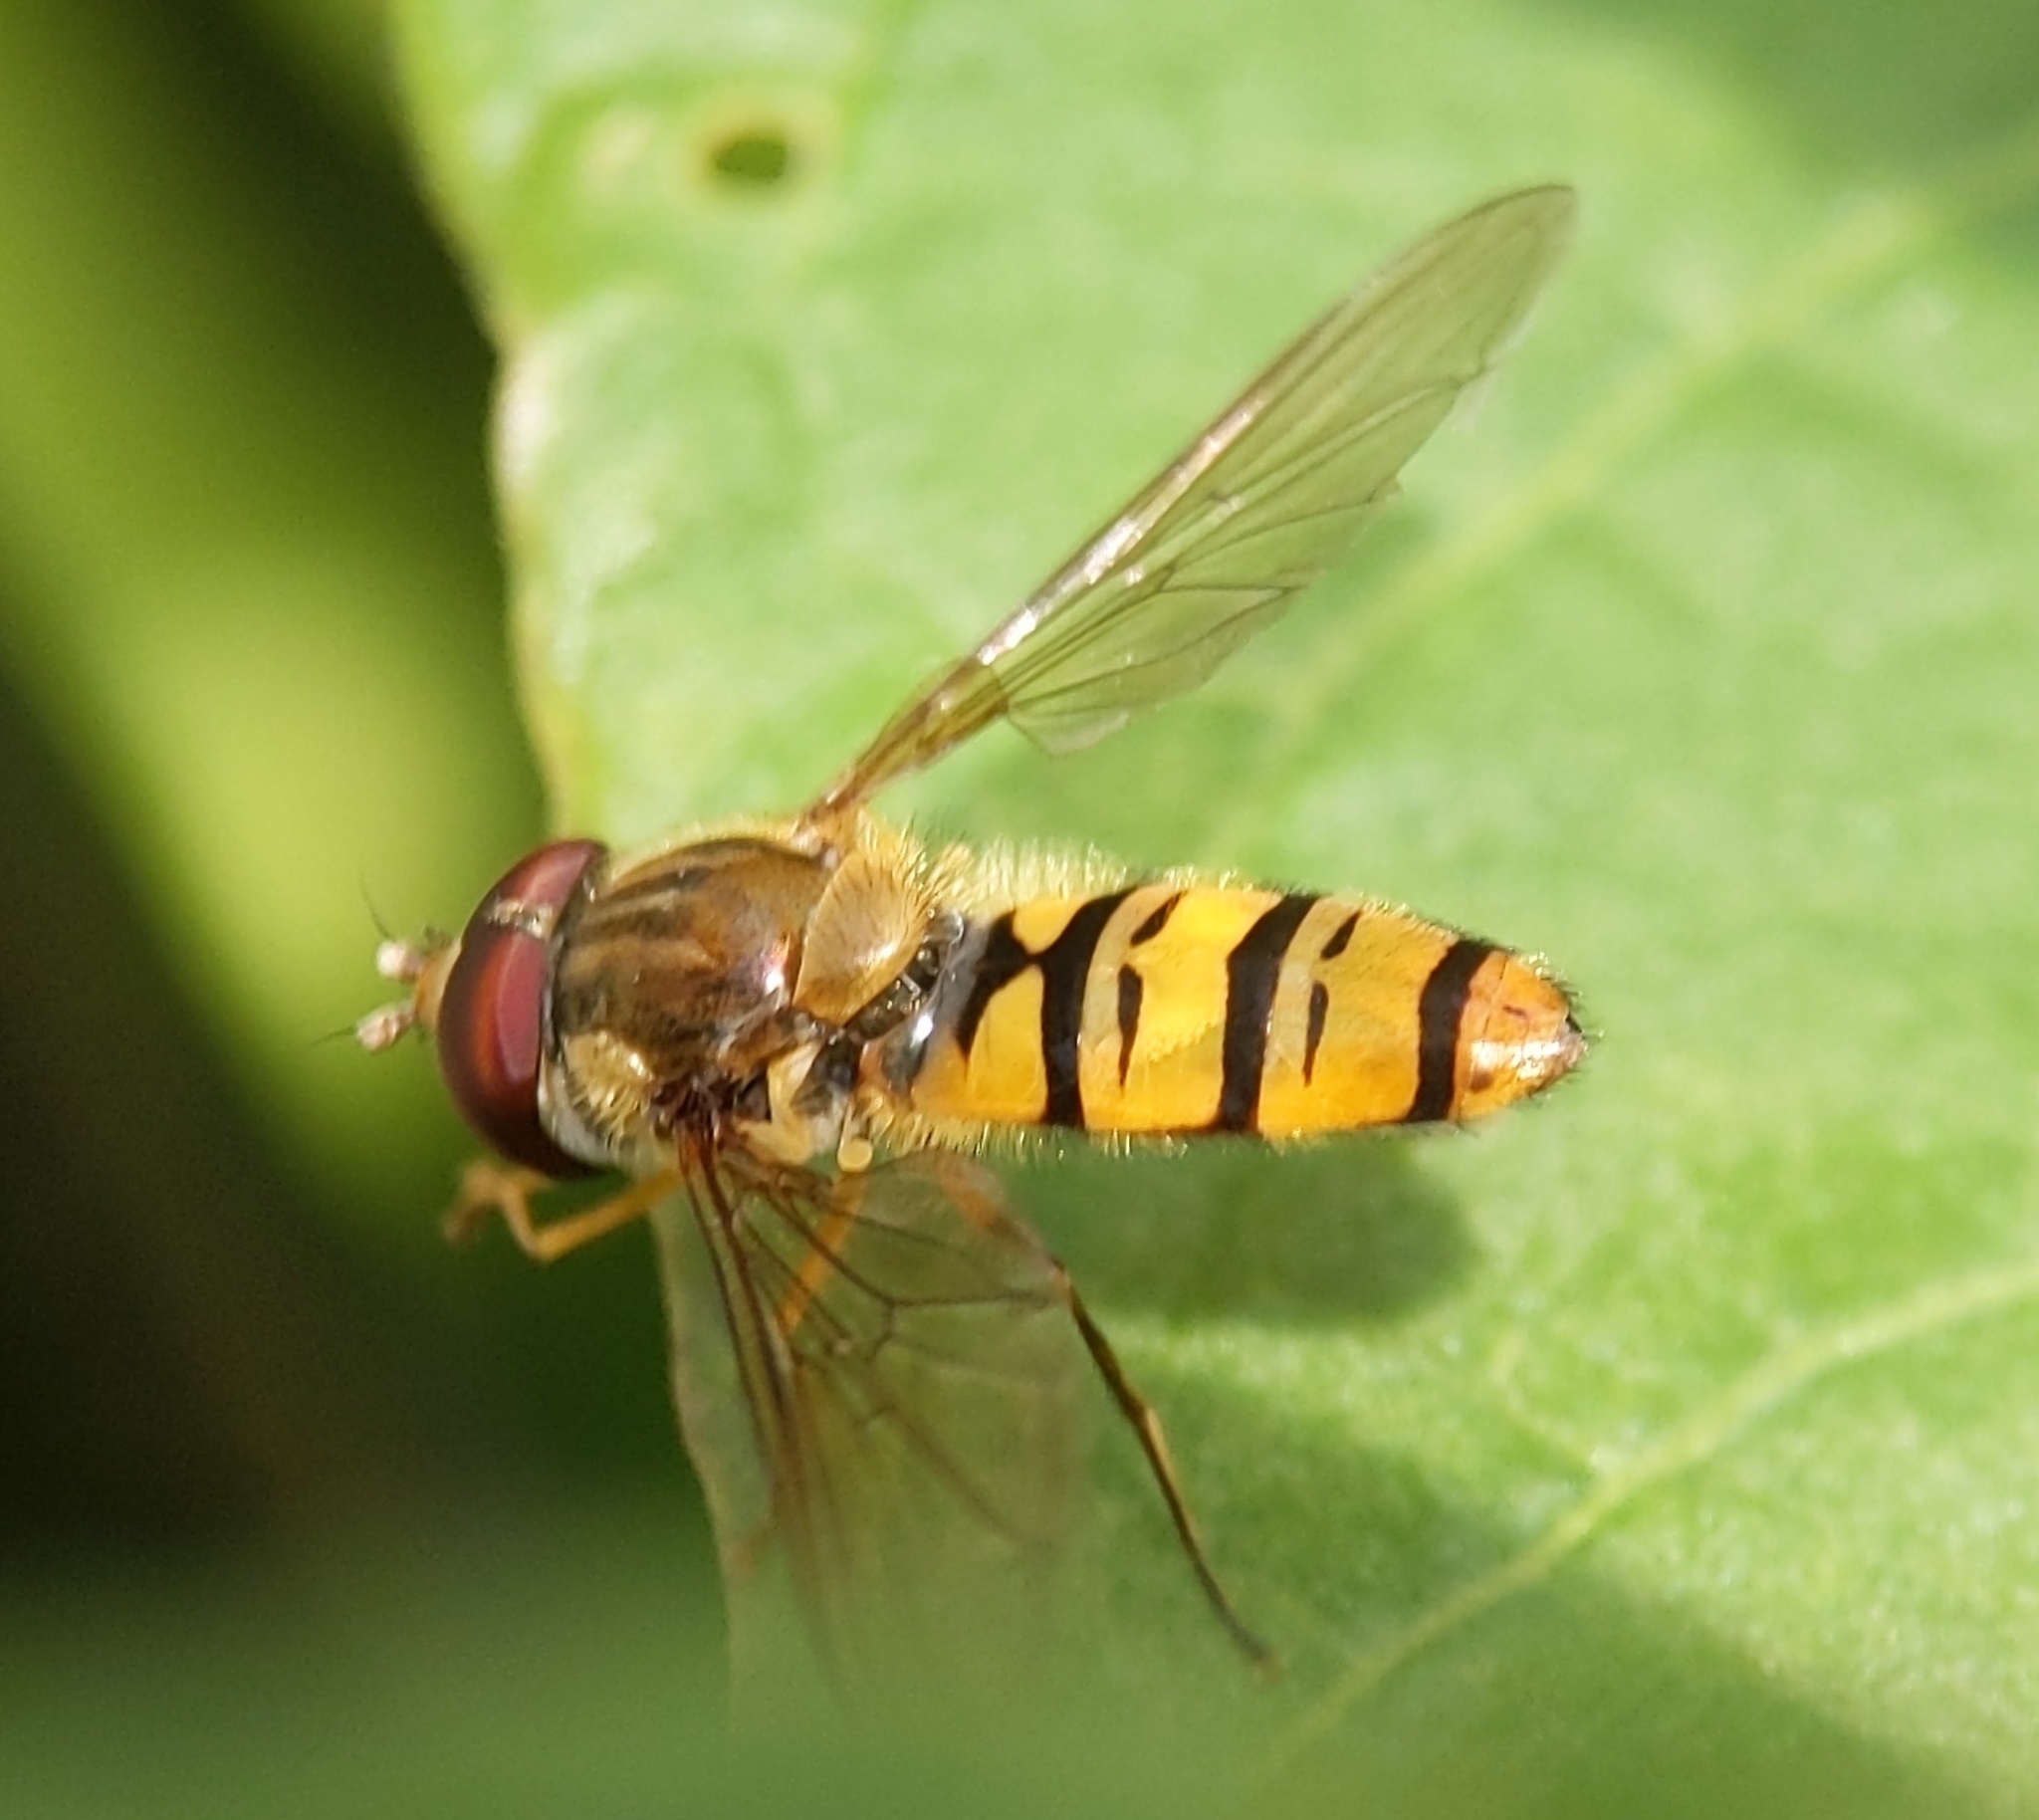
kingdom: Animalia
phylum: Arthropoda
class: Insecta
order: Diptera
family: Syrphidae
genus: Episyrphus
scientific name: Episyrphus balteatus
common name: Marmalade hoverfly
